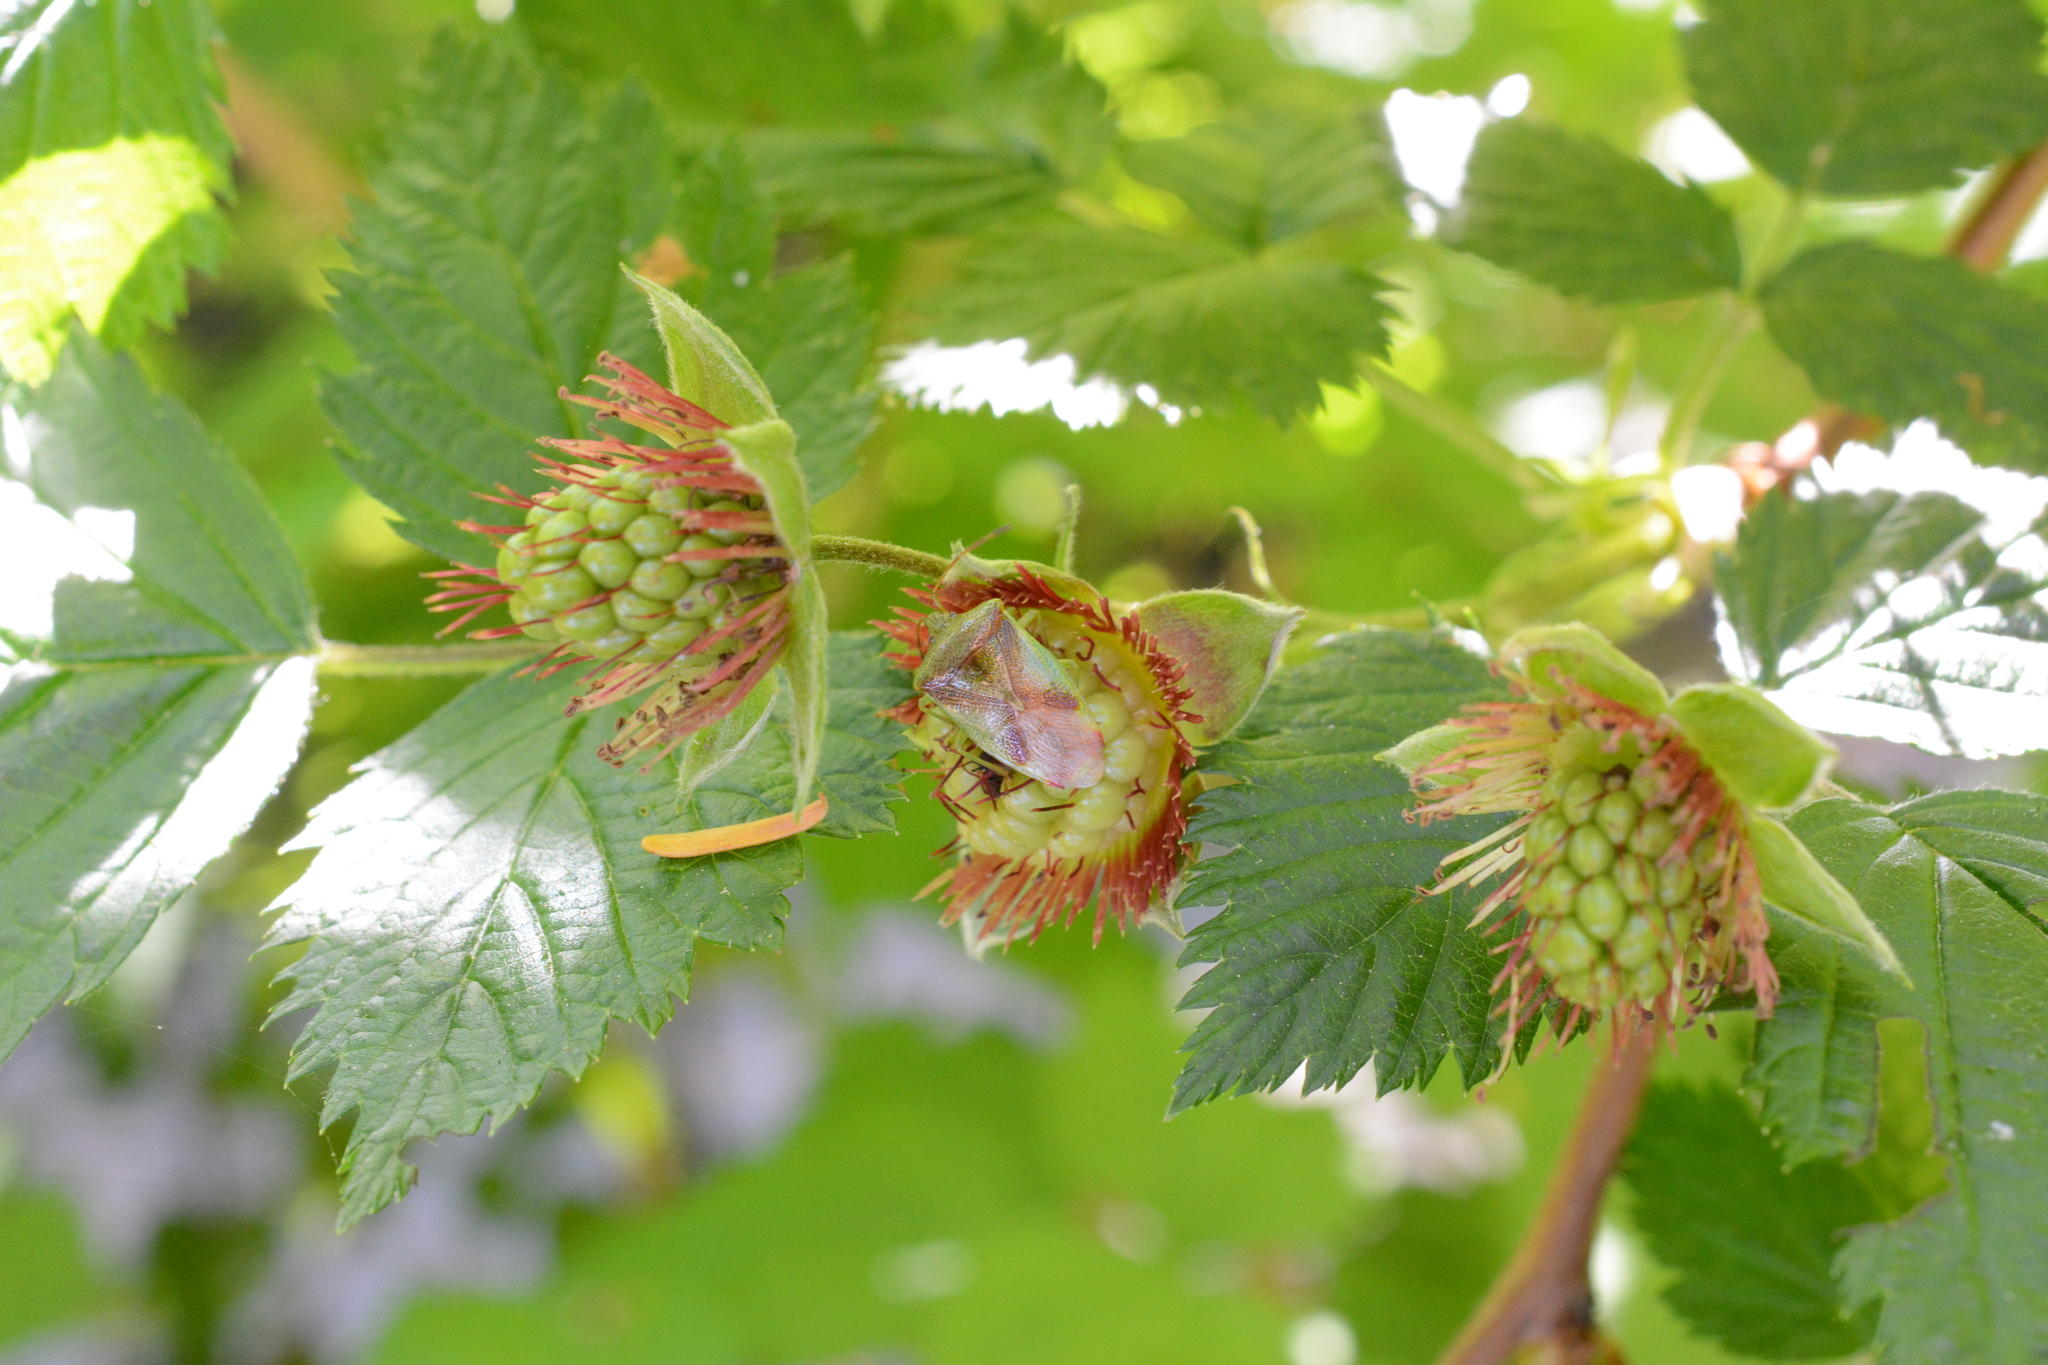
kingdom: Animalia
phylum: Arthropoda
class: Insecta
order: Hemiptera
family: Acanthosomatidae
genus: Elasmostethus
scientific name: Elasmostethus cruciatus
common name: Red-cross shield bug
